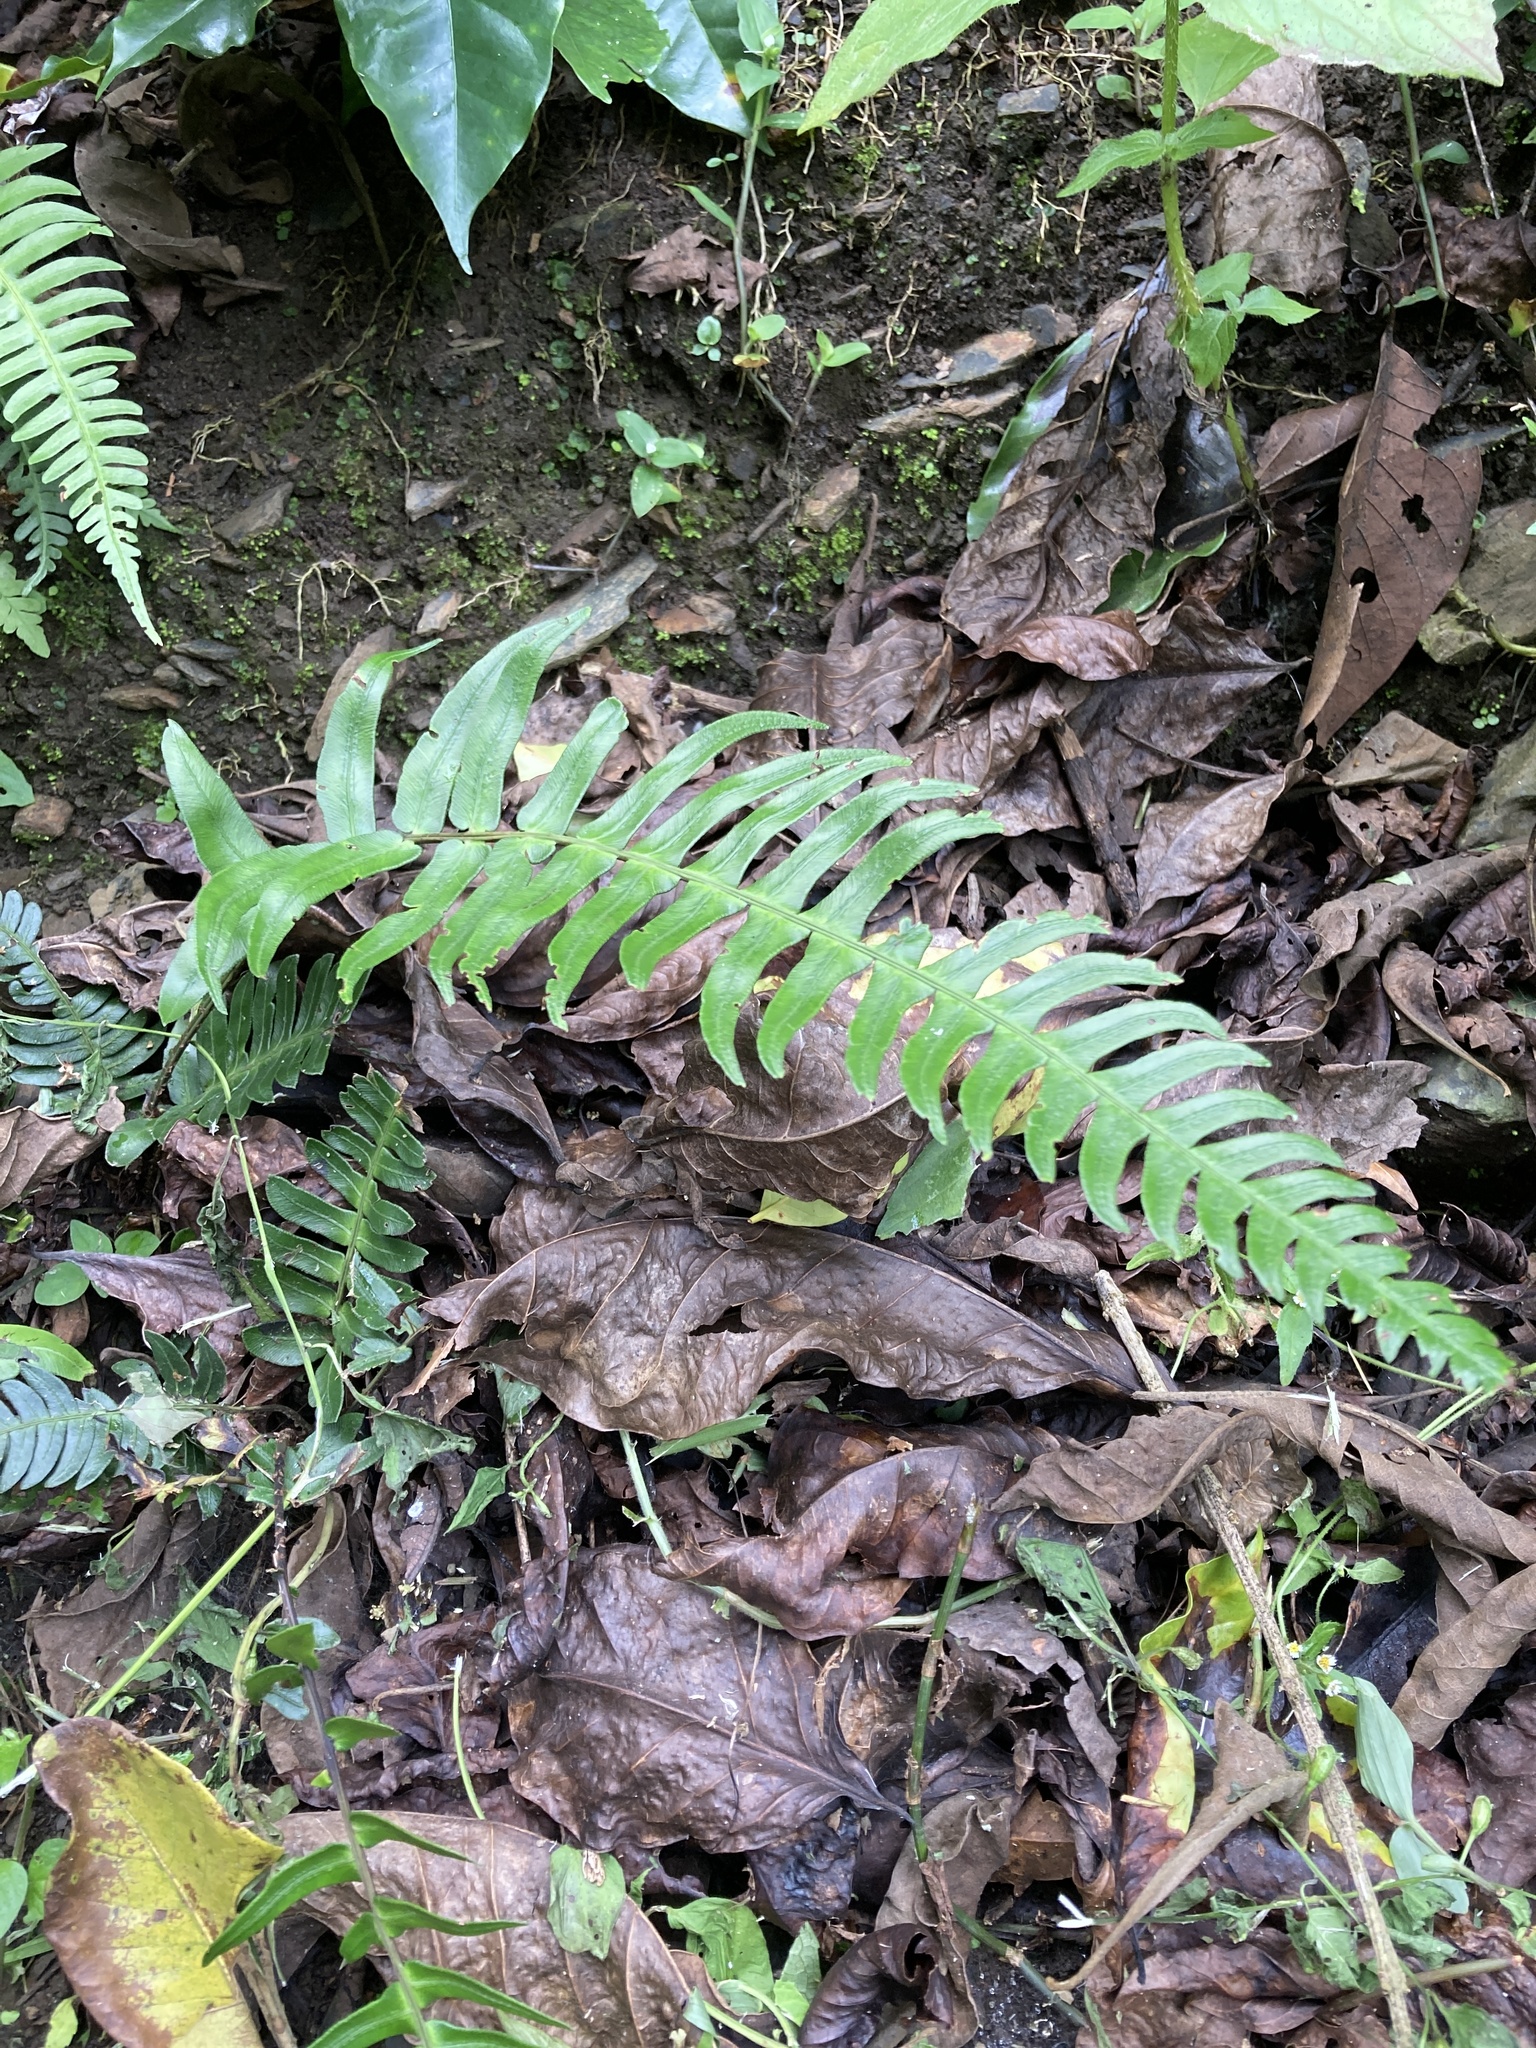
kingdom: Plantae
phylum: Tracheophyta
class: Polypodiopsida
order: Polypodiales
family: Blechnaceae
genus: Blechnum
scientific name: Blechnum occidentale
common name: Hammock fern
